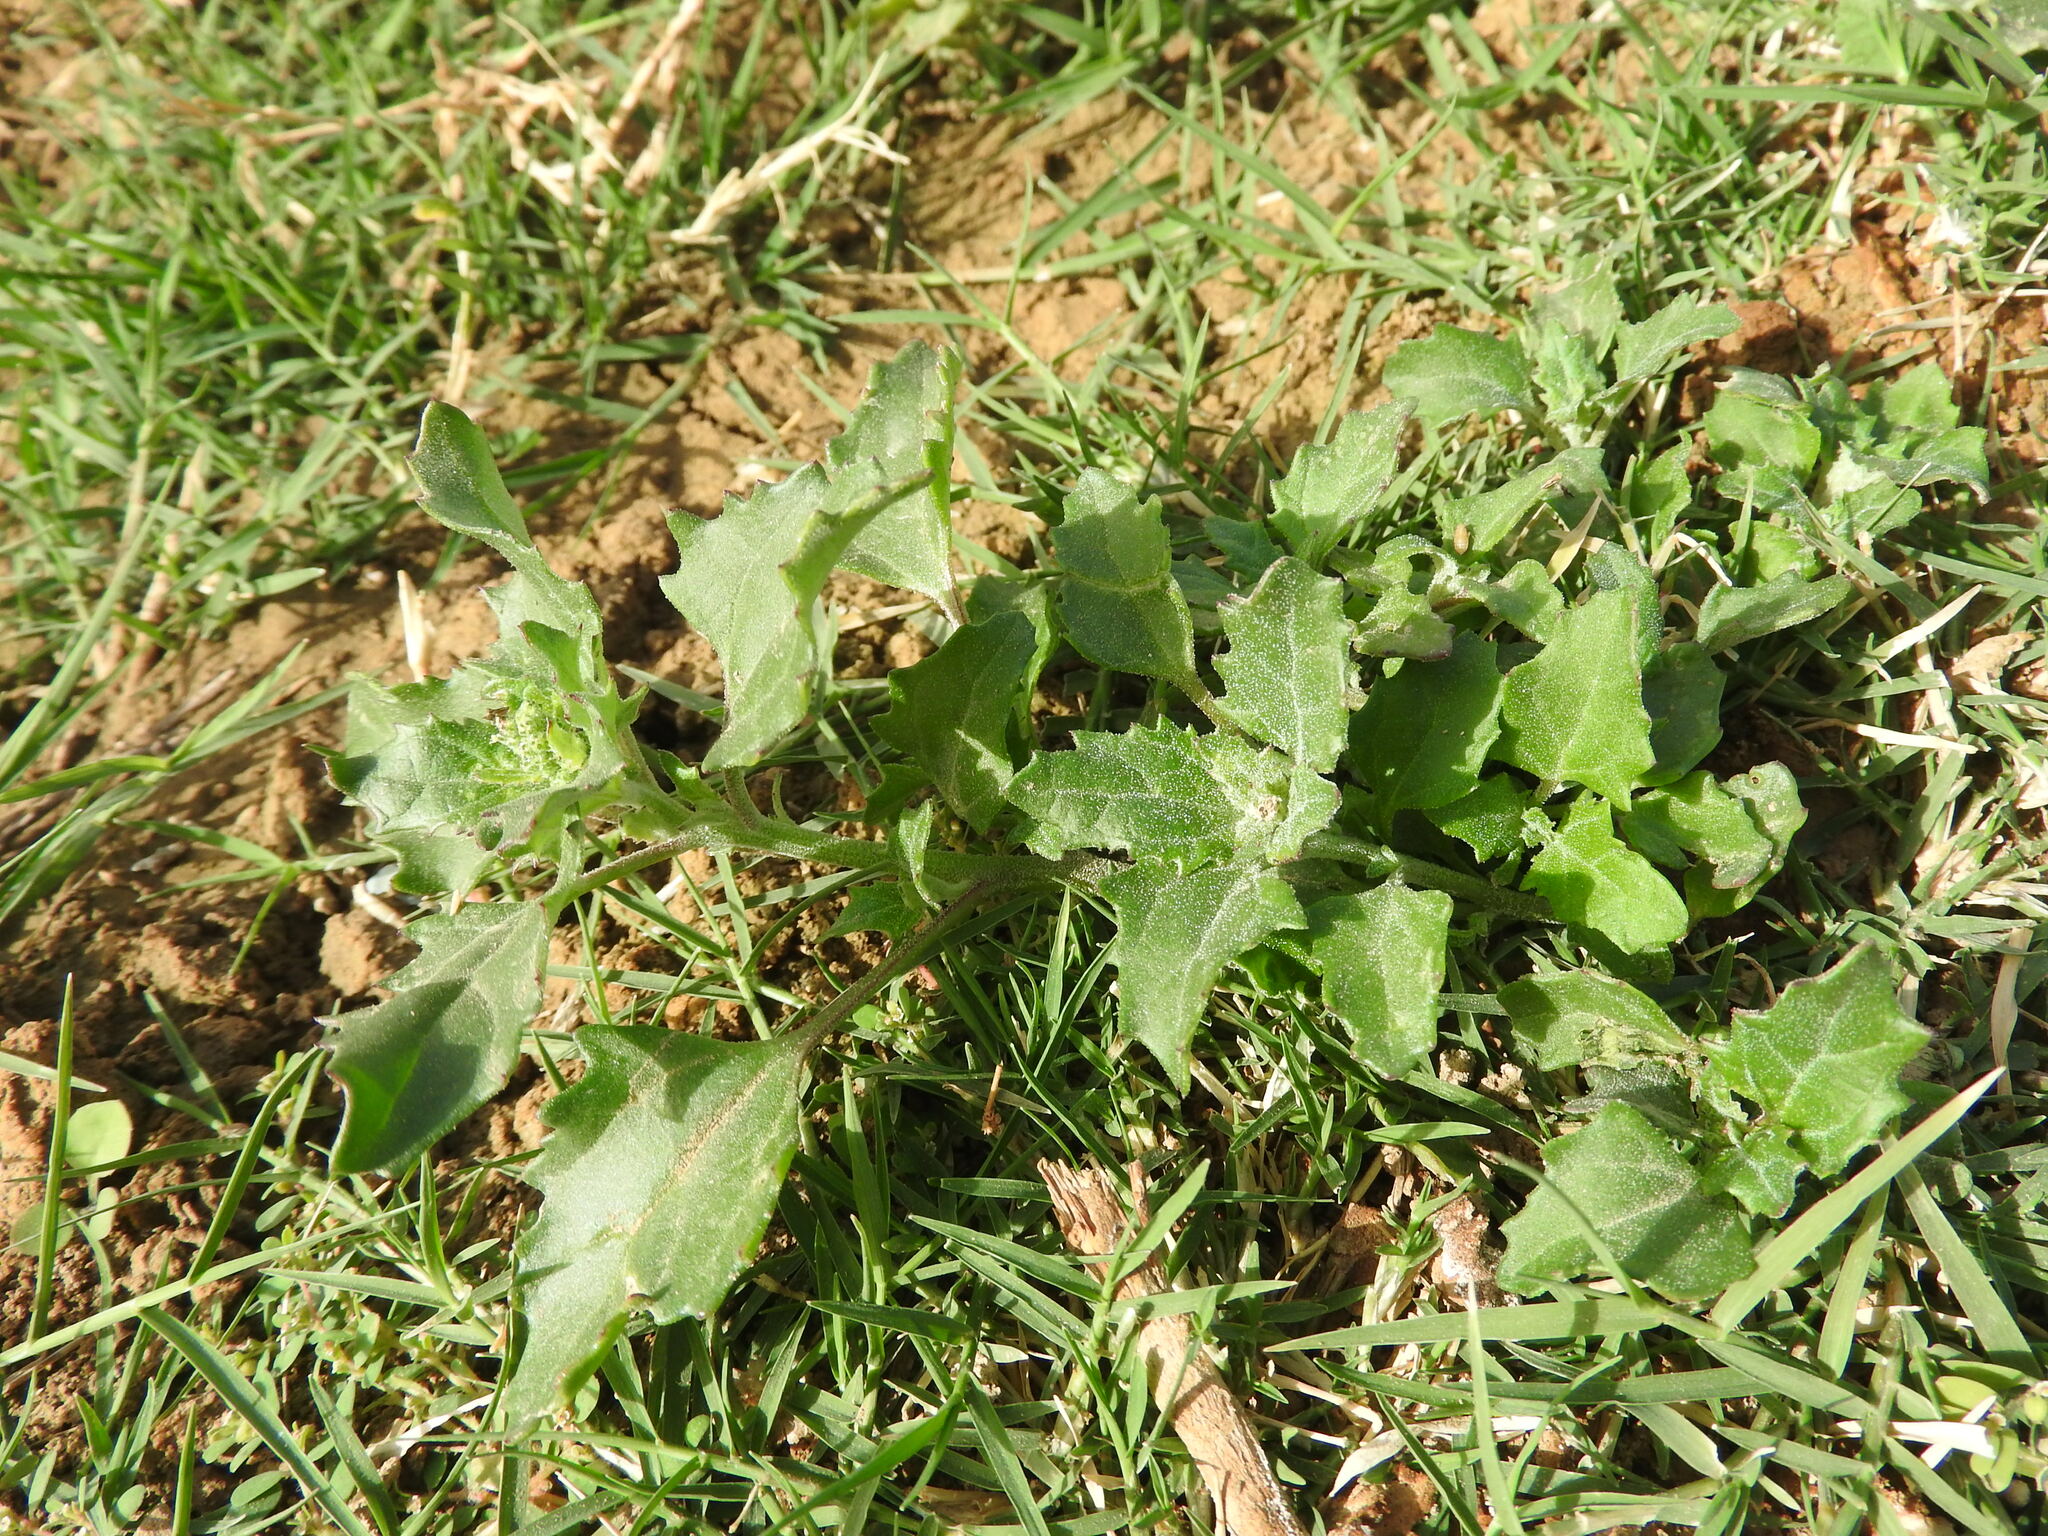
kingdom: Plantae
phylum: Tracheophyta
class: Magnoliopsida
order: Caryophyllales
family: Amaranthaceae
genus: Chenopodiastrum
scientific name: Chenopodiastrum murale
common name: Sowbane
